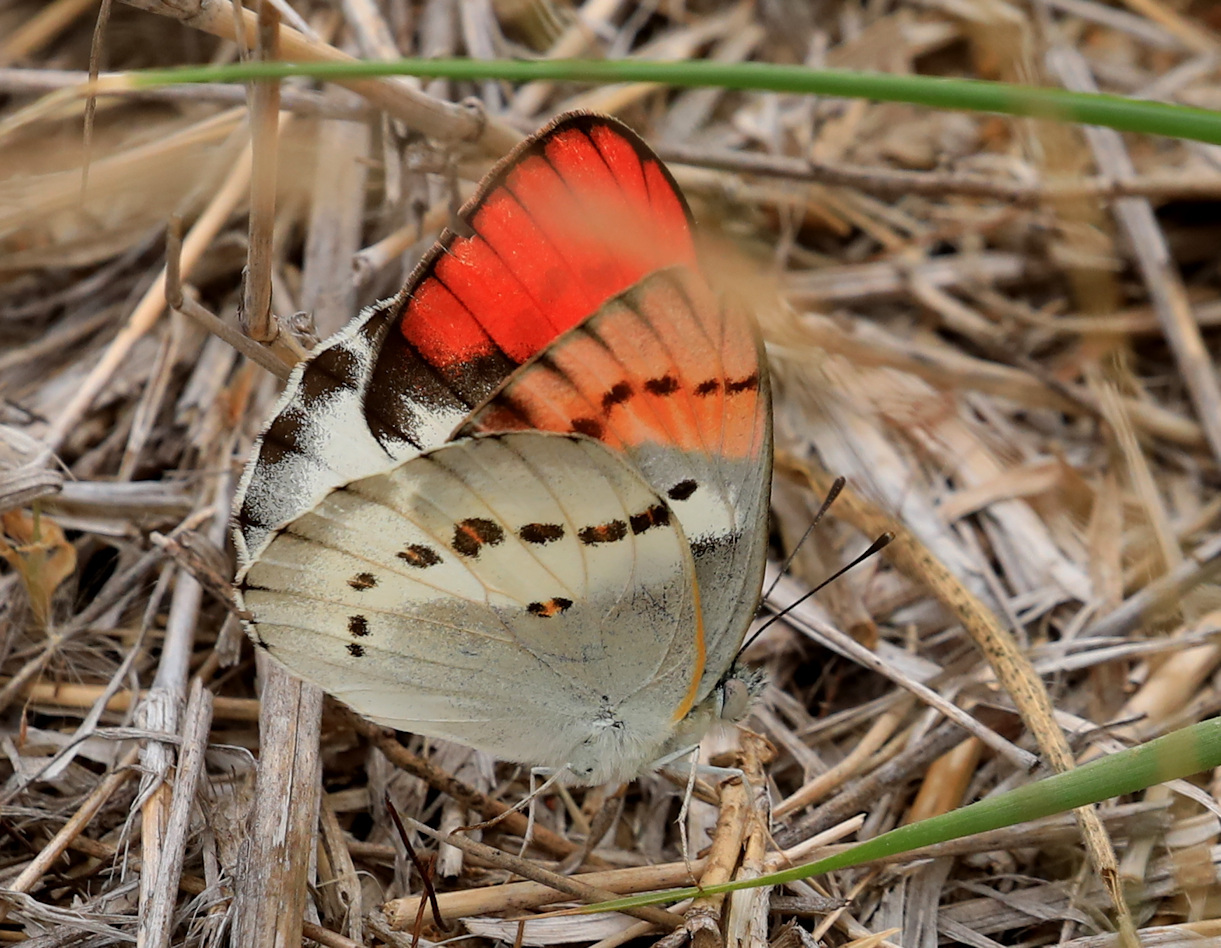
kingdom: Animalia
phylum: Arthropoda
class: Insecta
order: Lepidoptera
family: Pieridae
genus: Colotis
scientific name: Colotis annae
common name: Scarlet tip
